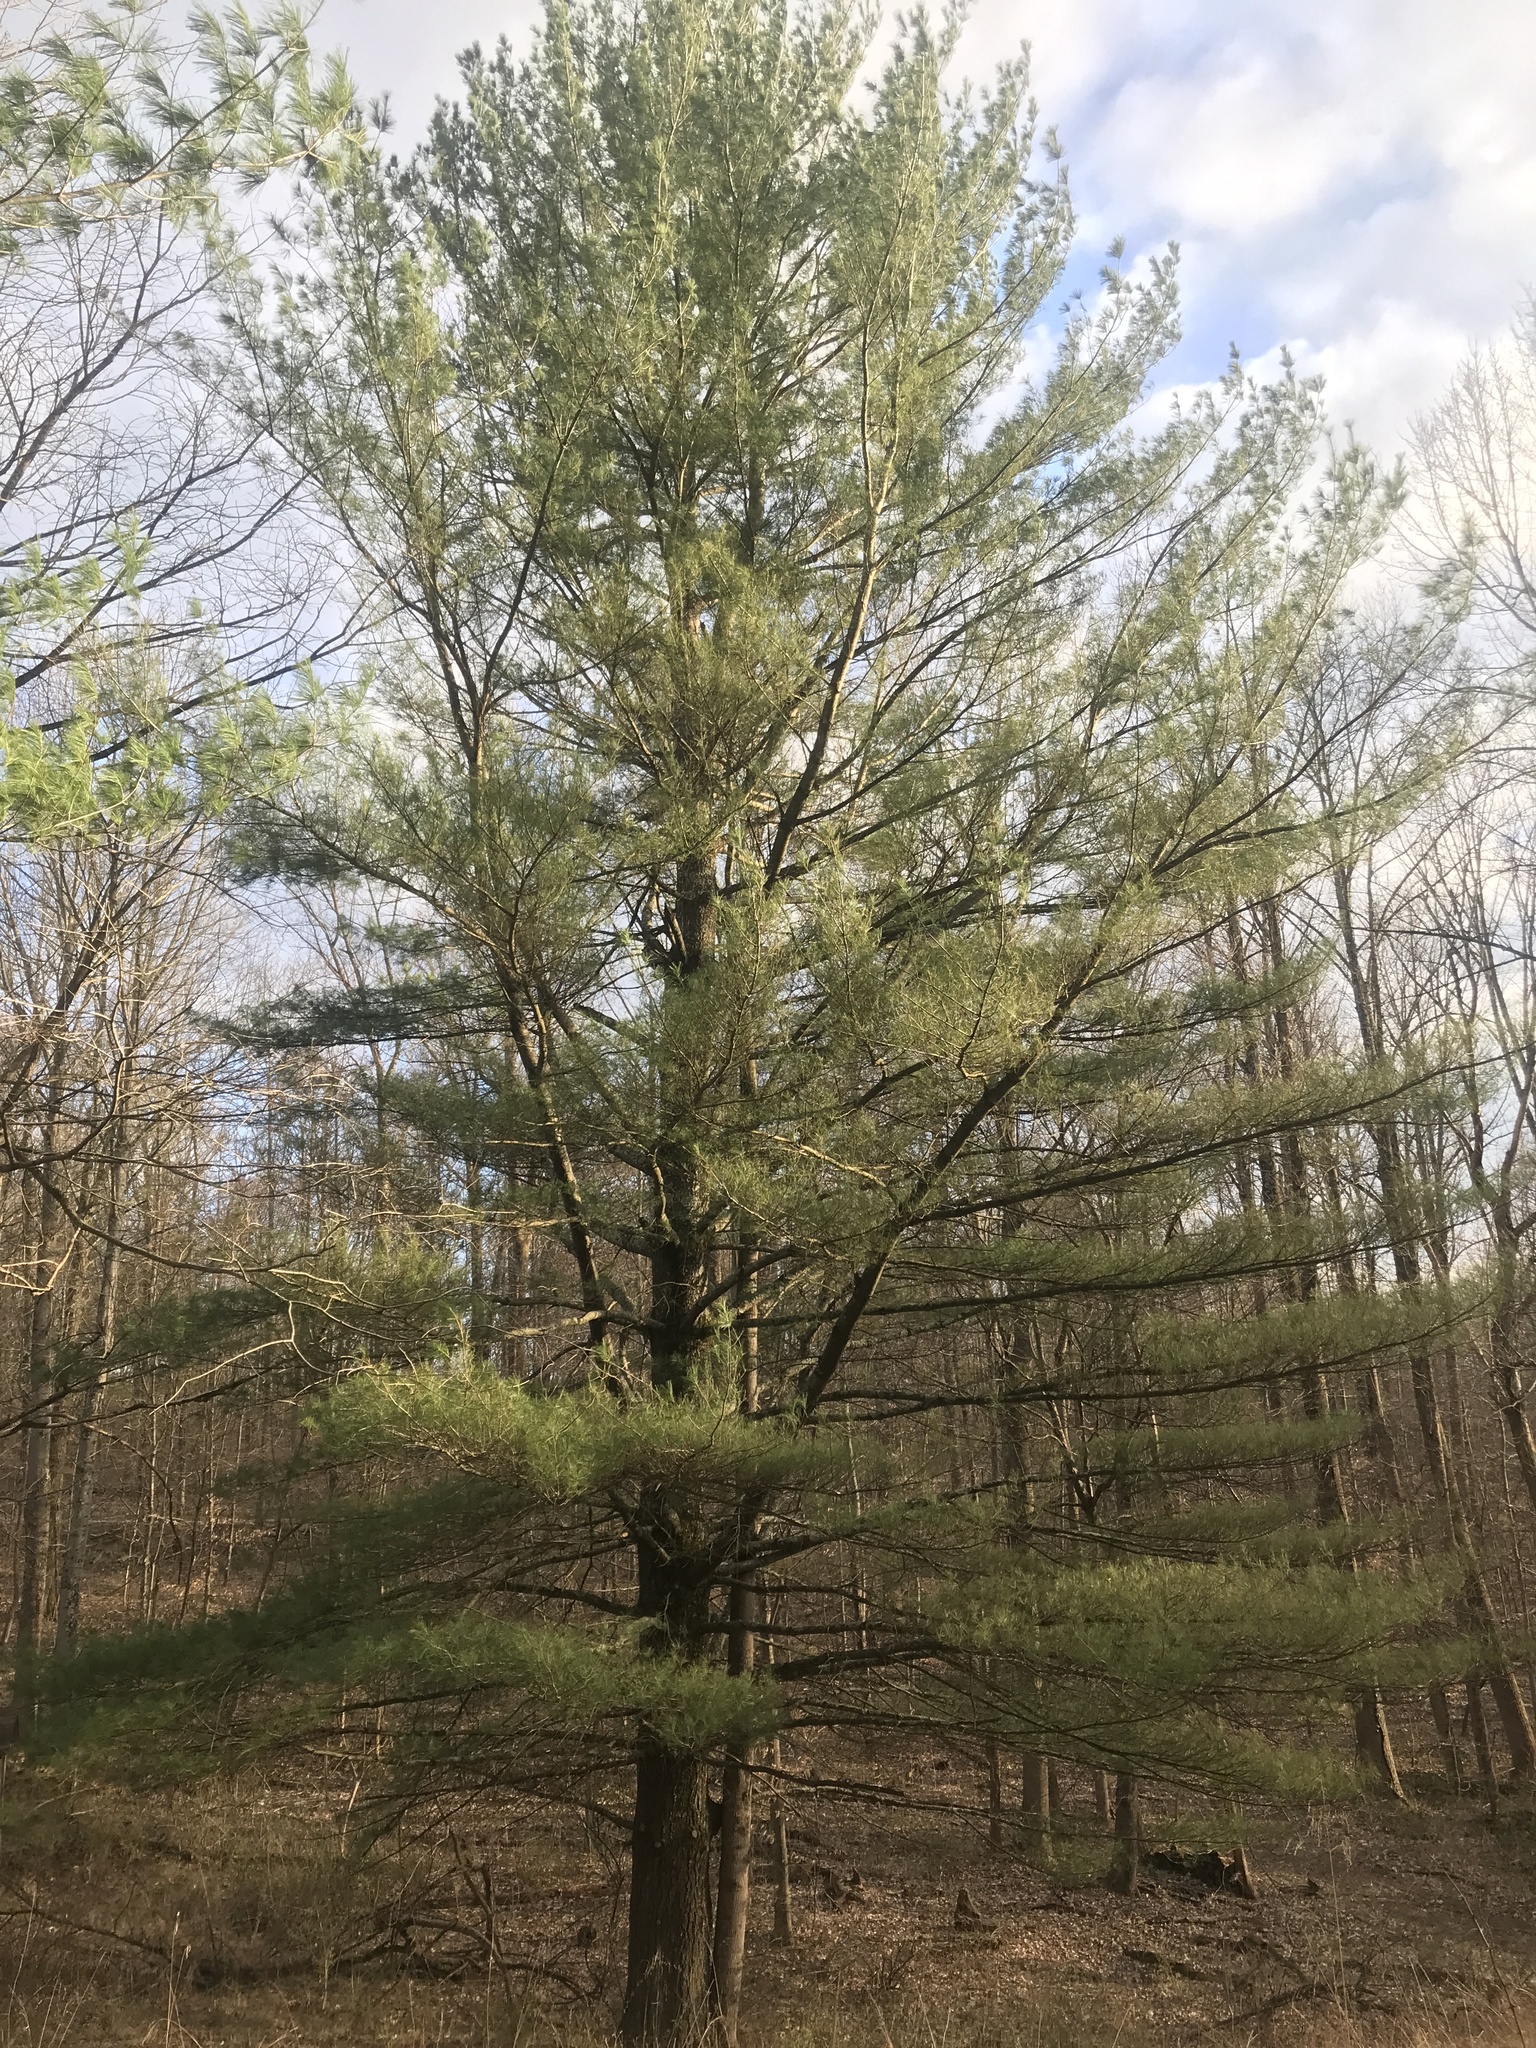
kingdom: Plantae
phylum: Tracheophyta
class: Pinopsida
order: Pinales
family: Pinaceae
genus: Pinus
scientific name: Pinus strobus
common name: Weymouth pine
